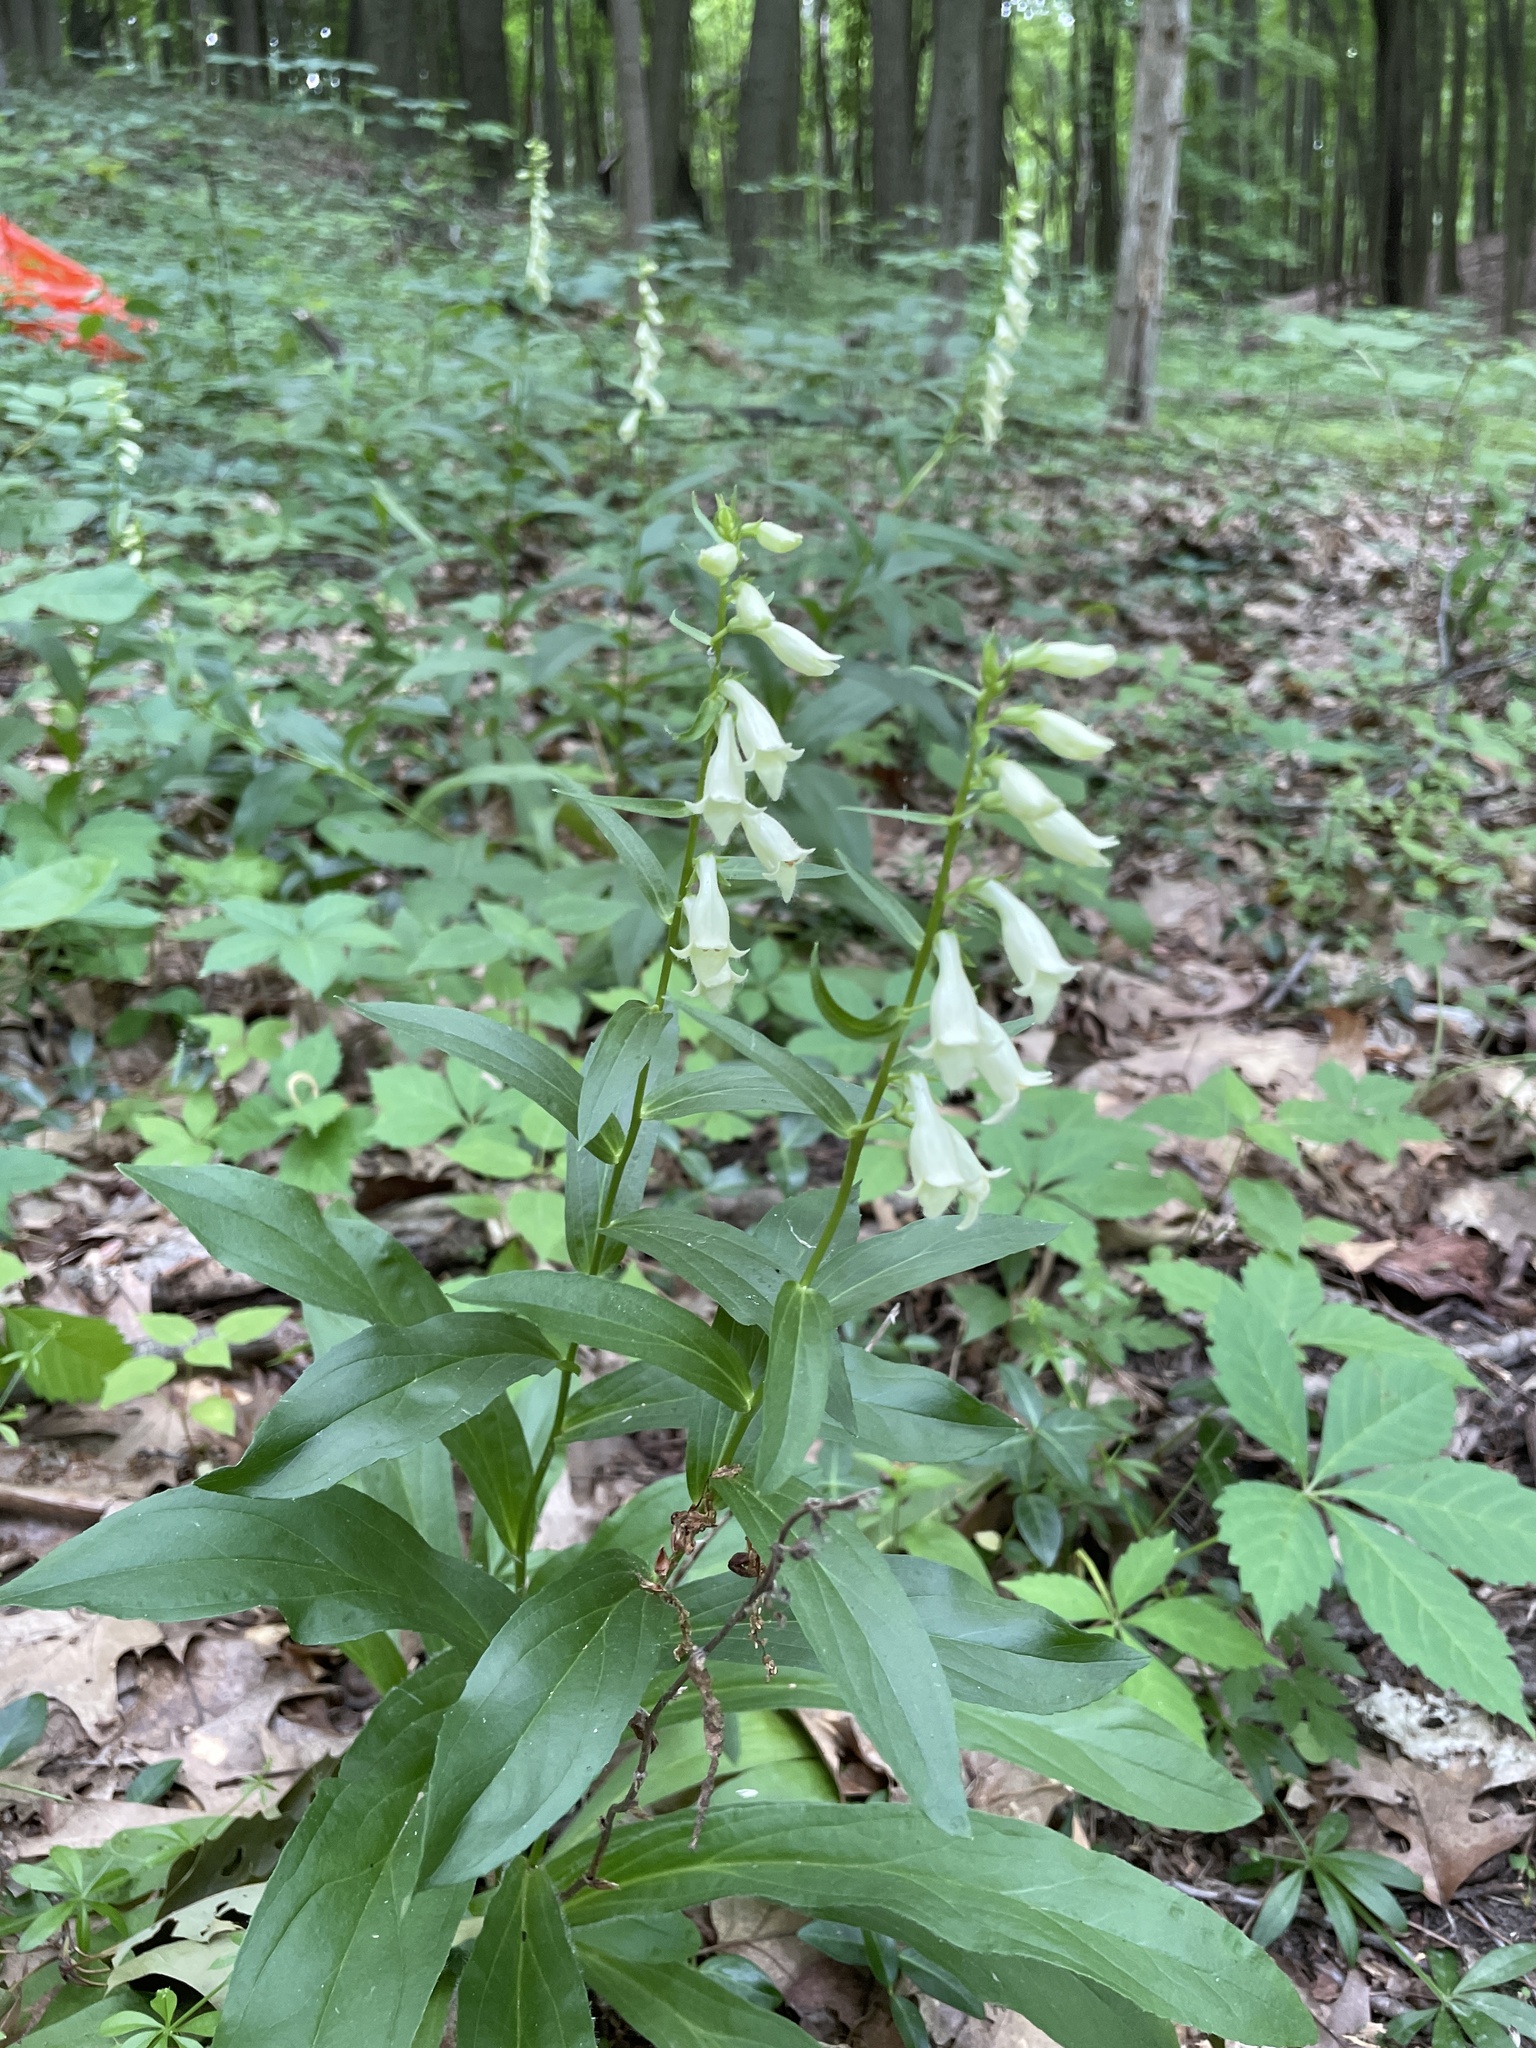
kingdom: Plantae
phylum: Tracheophyta
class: Magnoliopsida
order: Lamiales
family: Plantaginaceae
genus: Digitalis
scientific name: Digitalis lutea
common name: Straw foxglove
